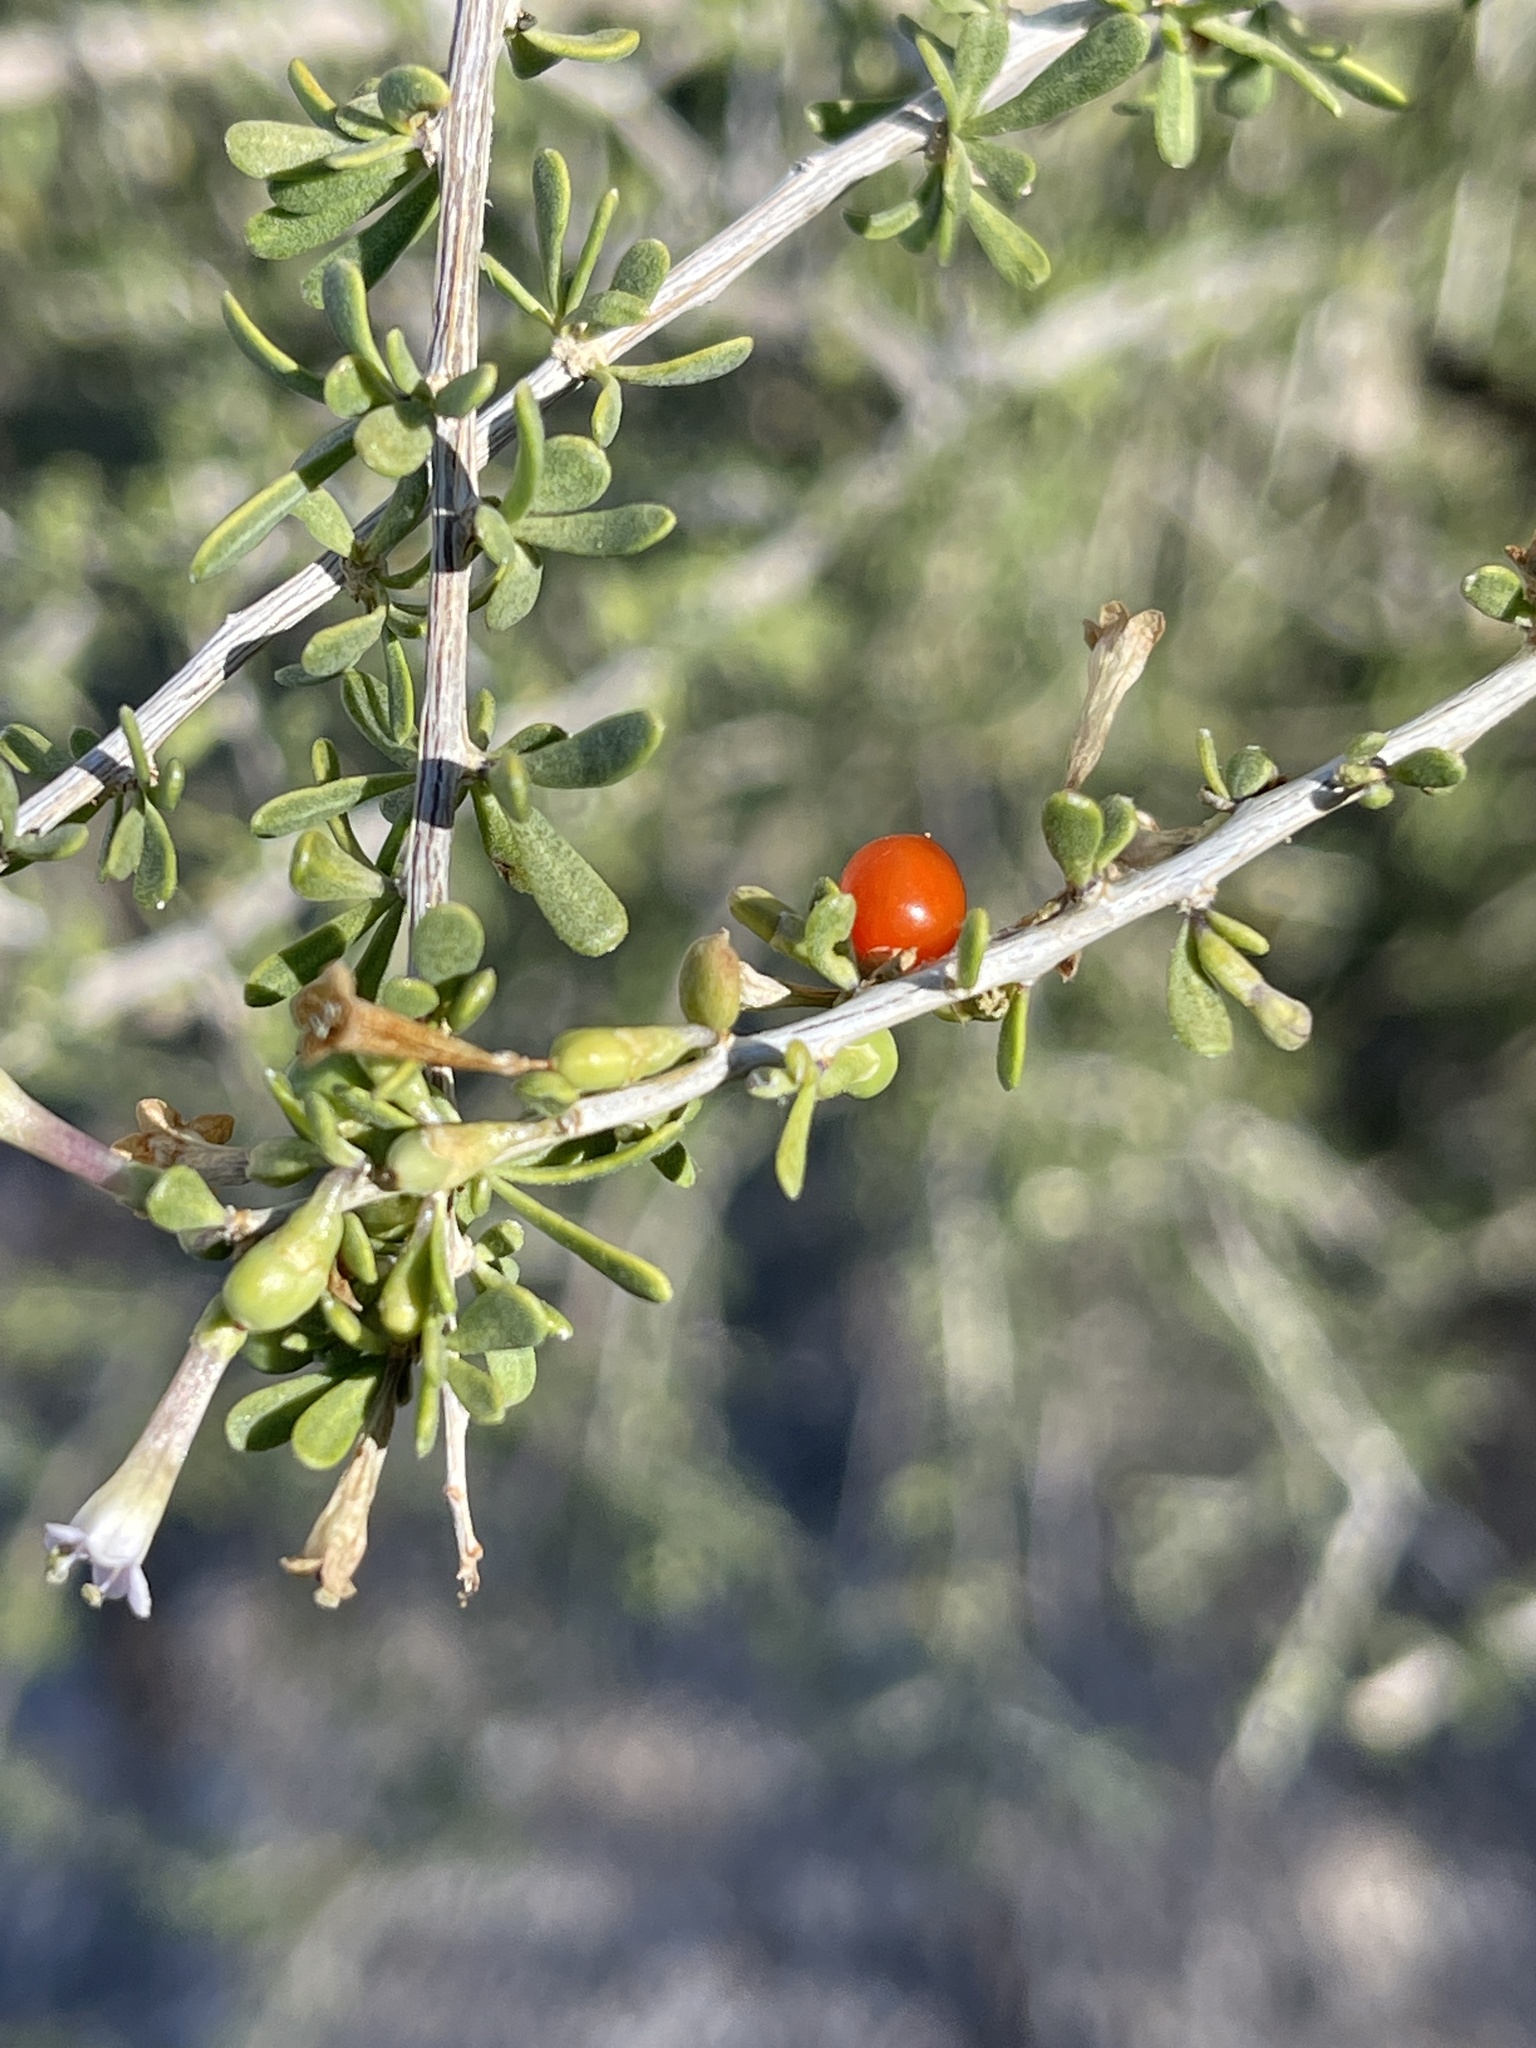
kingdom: Plantae
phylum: Tracheophyta
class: Magnoliopsida
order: Solanales
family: Solanaceae
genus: Lycium
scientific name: Lycium andersonii
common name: Water-jacket
